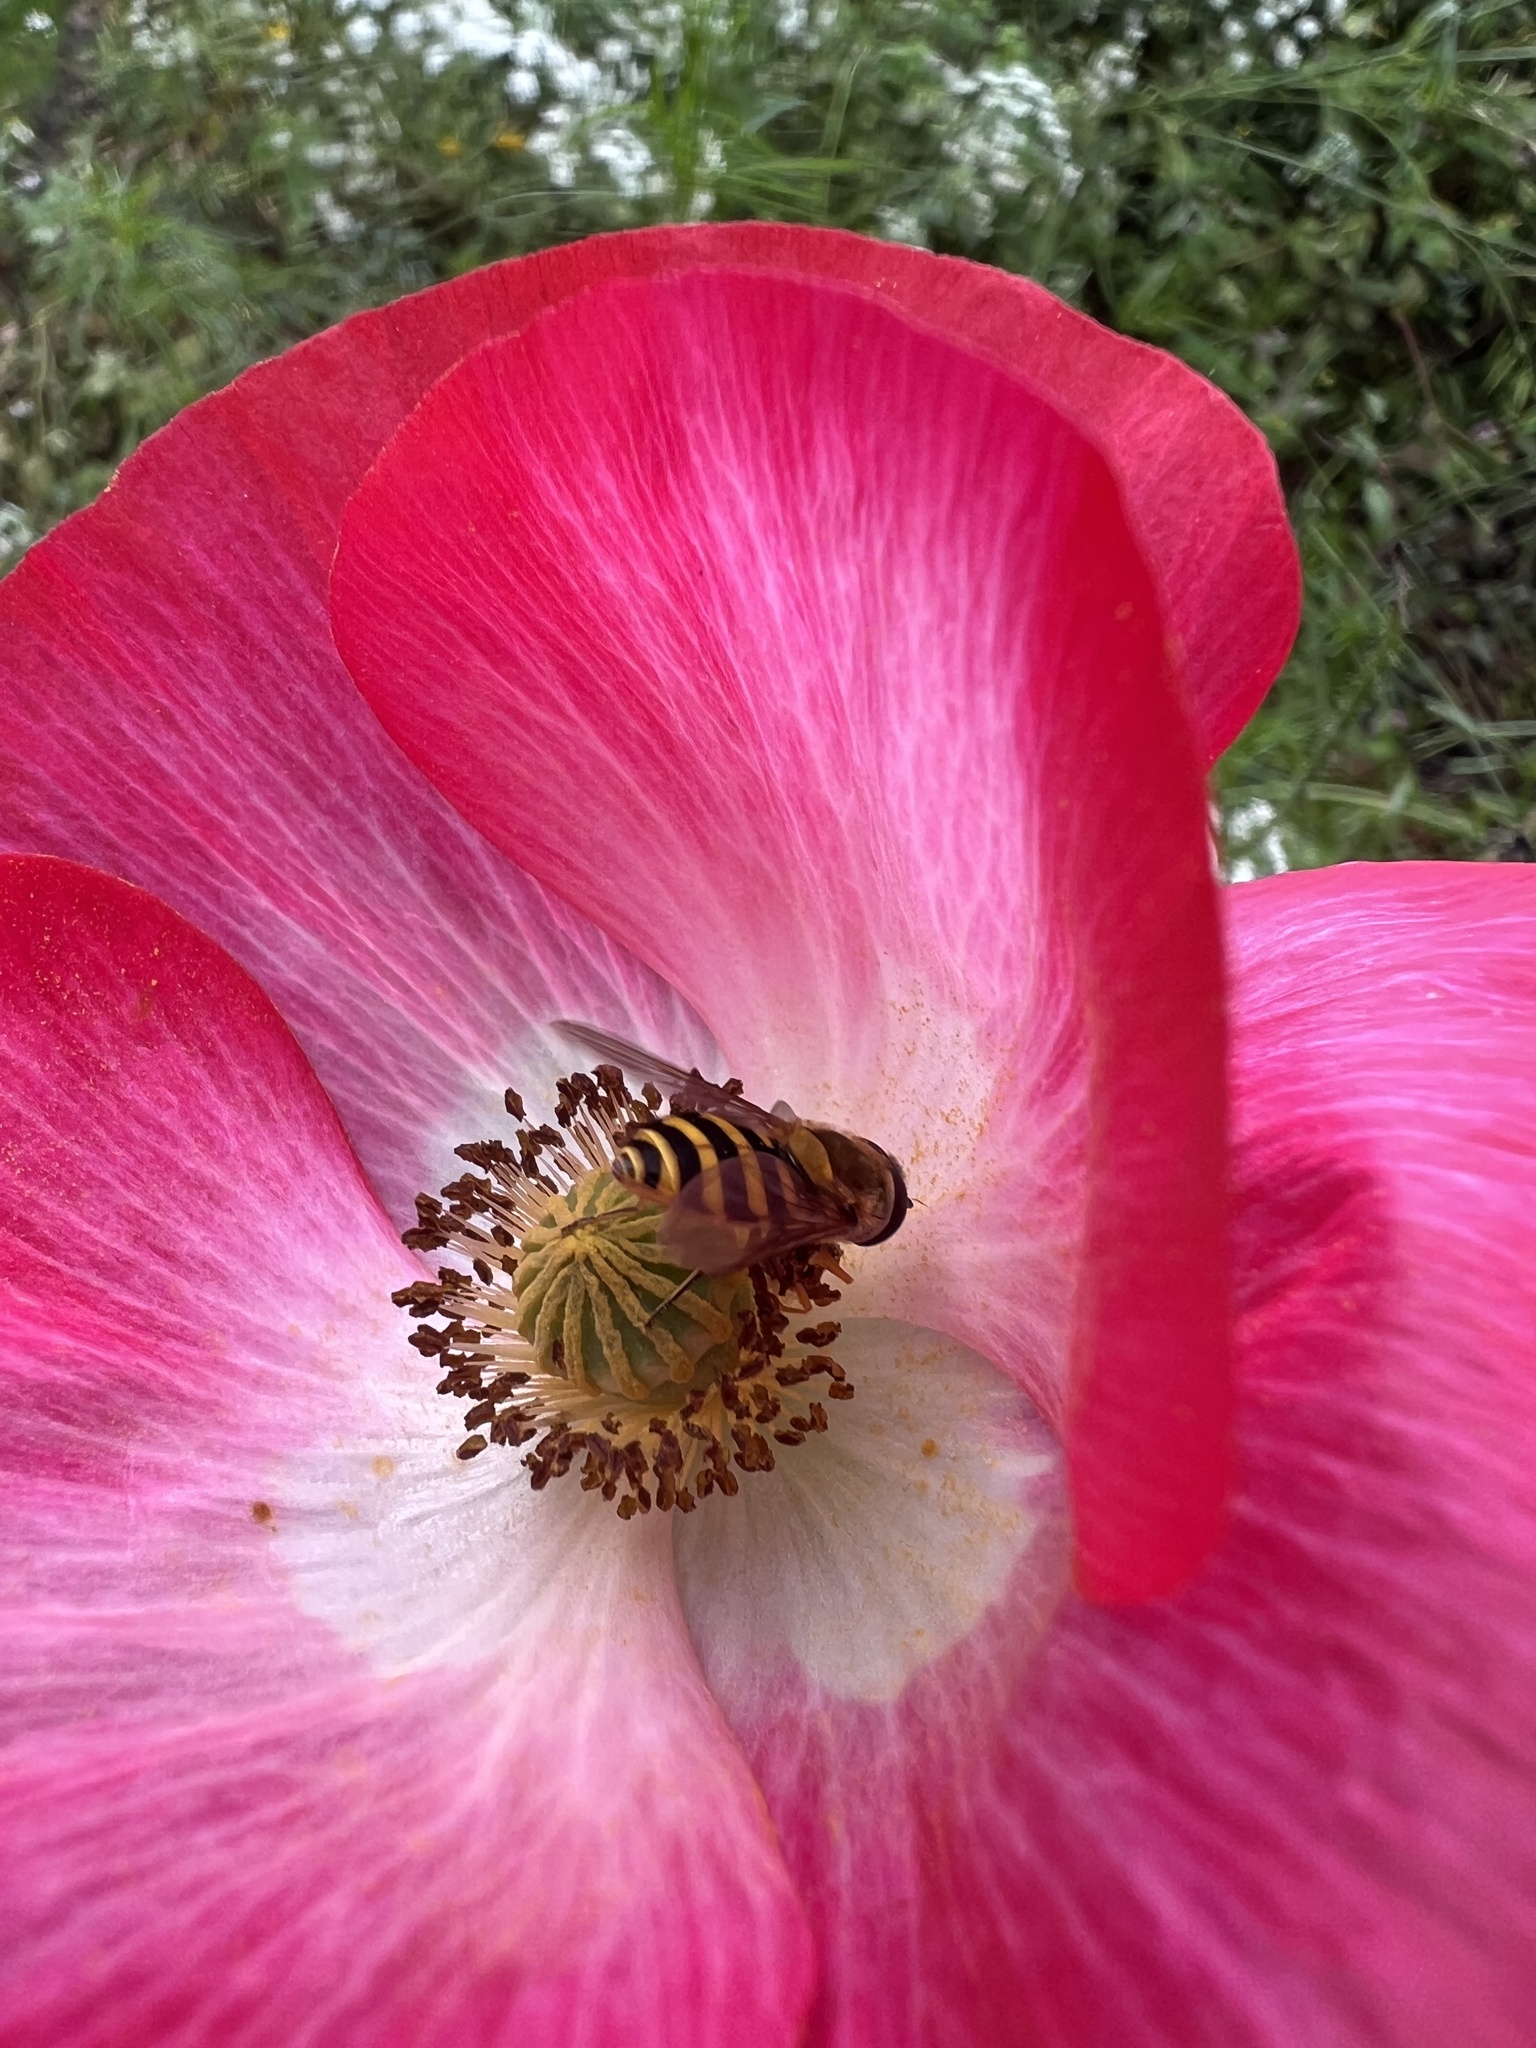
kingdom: Animalia
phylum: Arthropoda
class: Insecta
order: Diptera
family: Syrphidae
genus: Syrphus
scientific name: Syrphus
